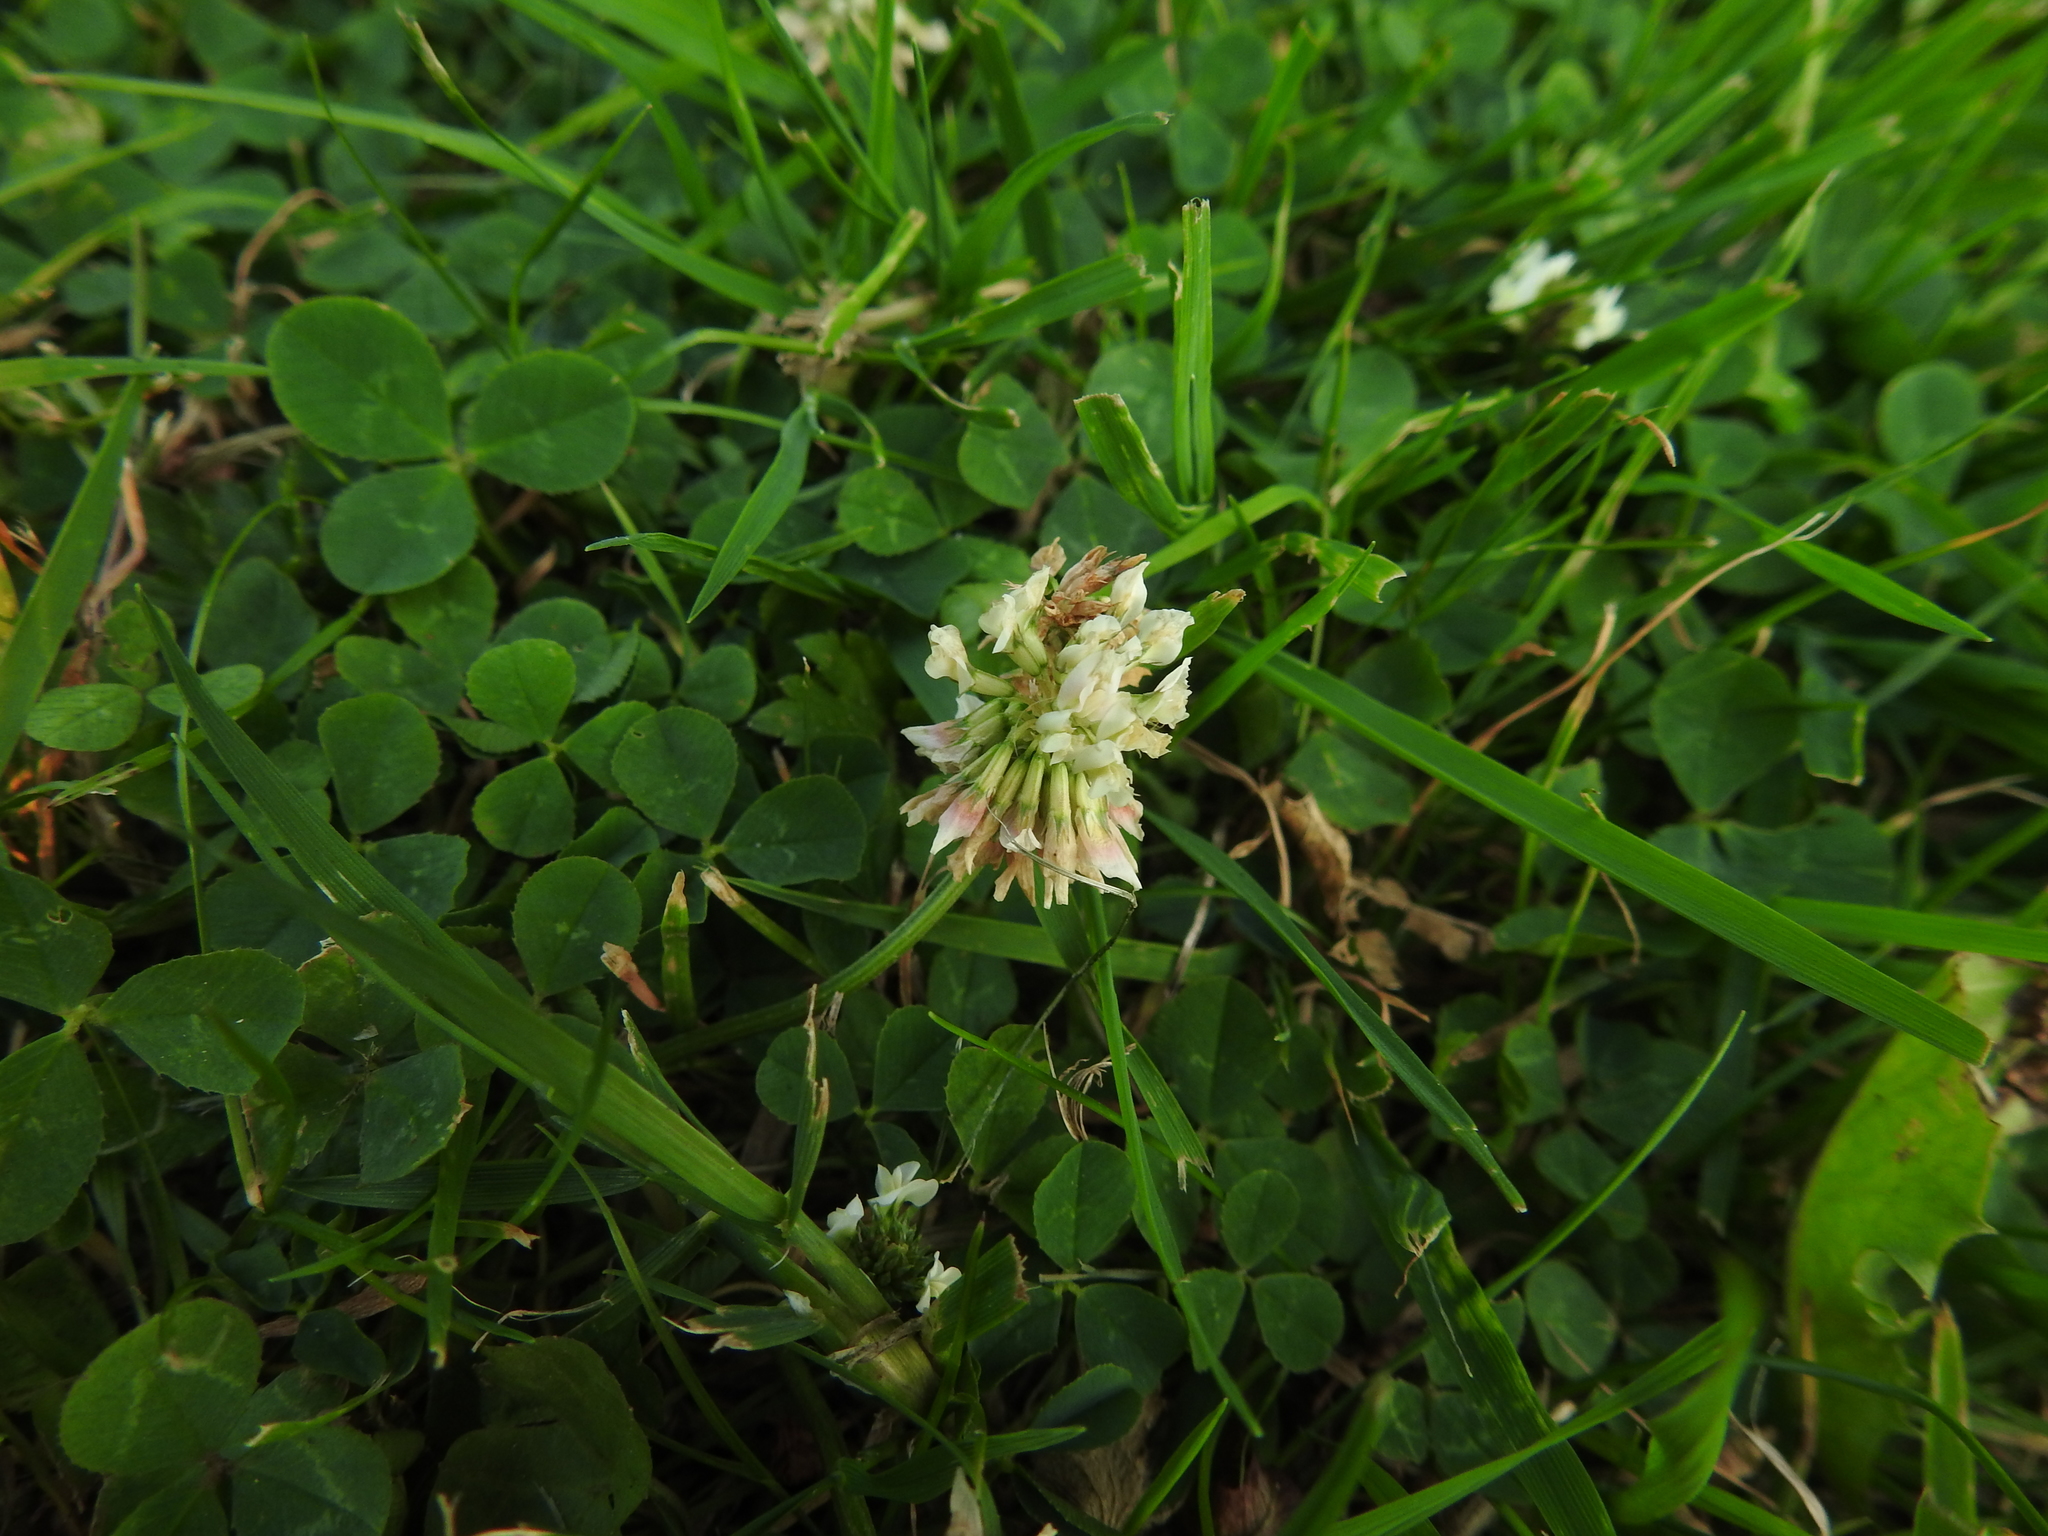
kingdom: Plantae
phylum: Tracheophyta
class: Magnoliopsida
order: Fabales
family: Fabaceae
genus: Trifolium
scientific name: Trifolium repens
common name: White clover
